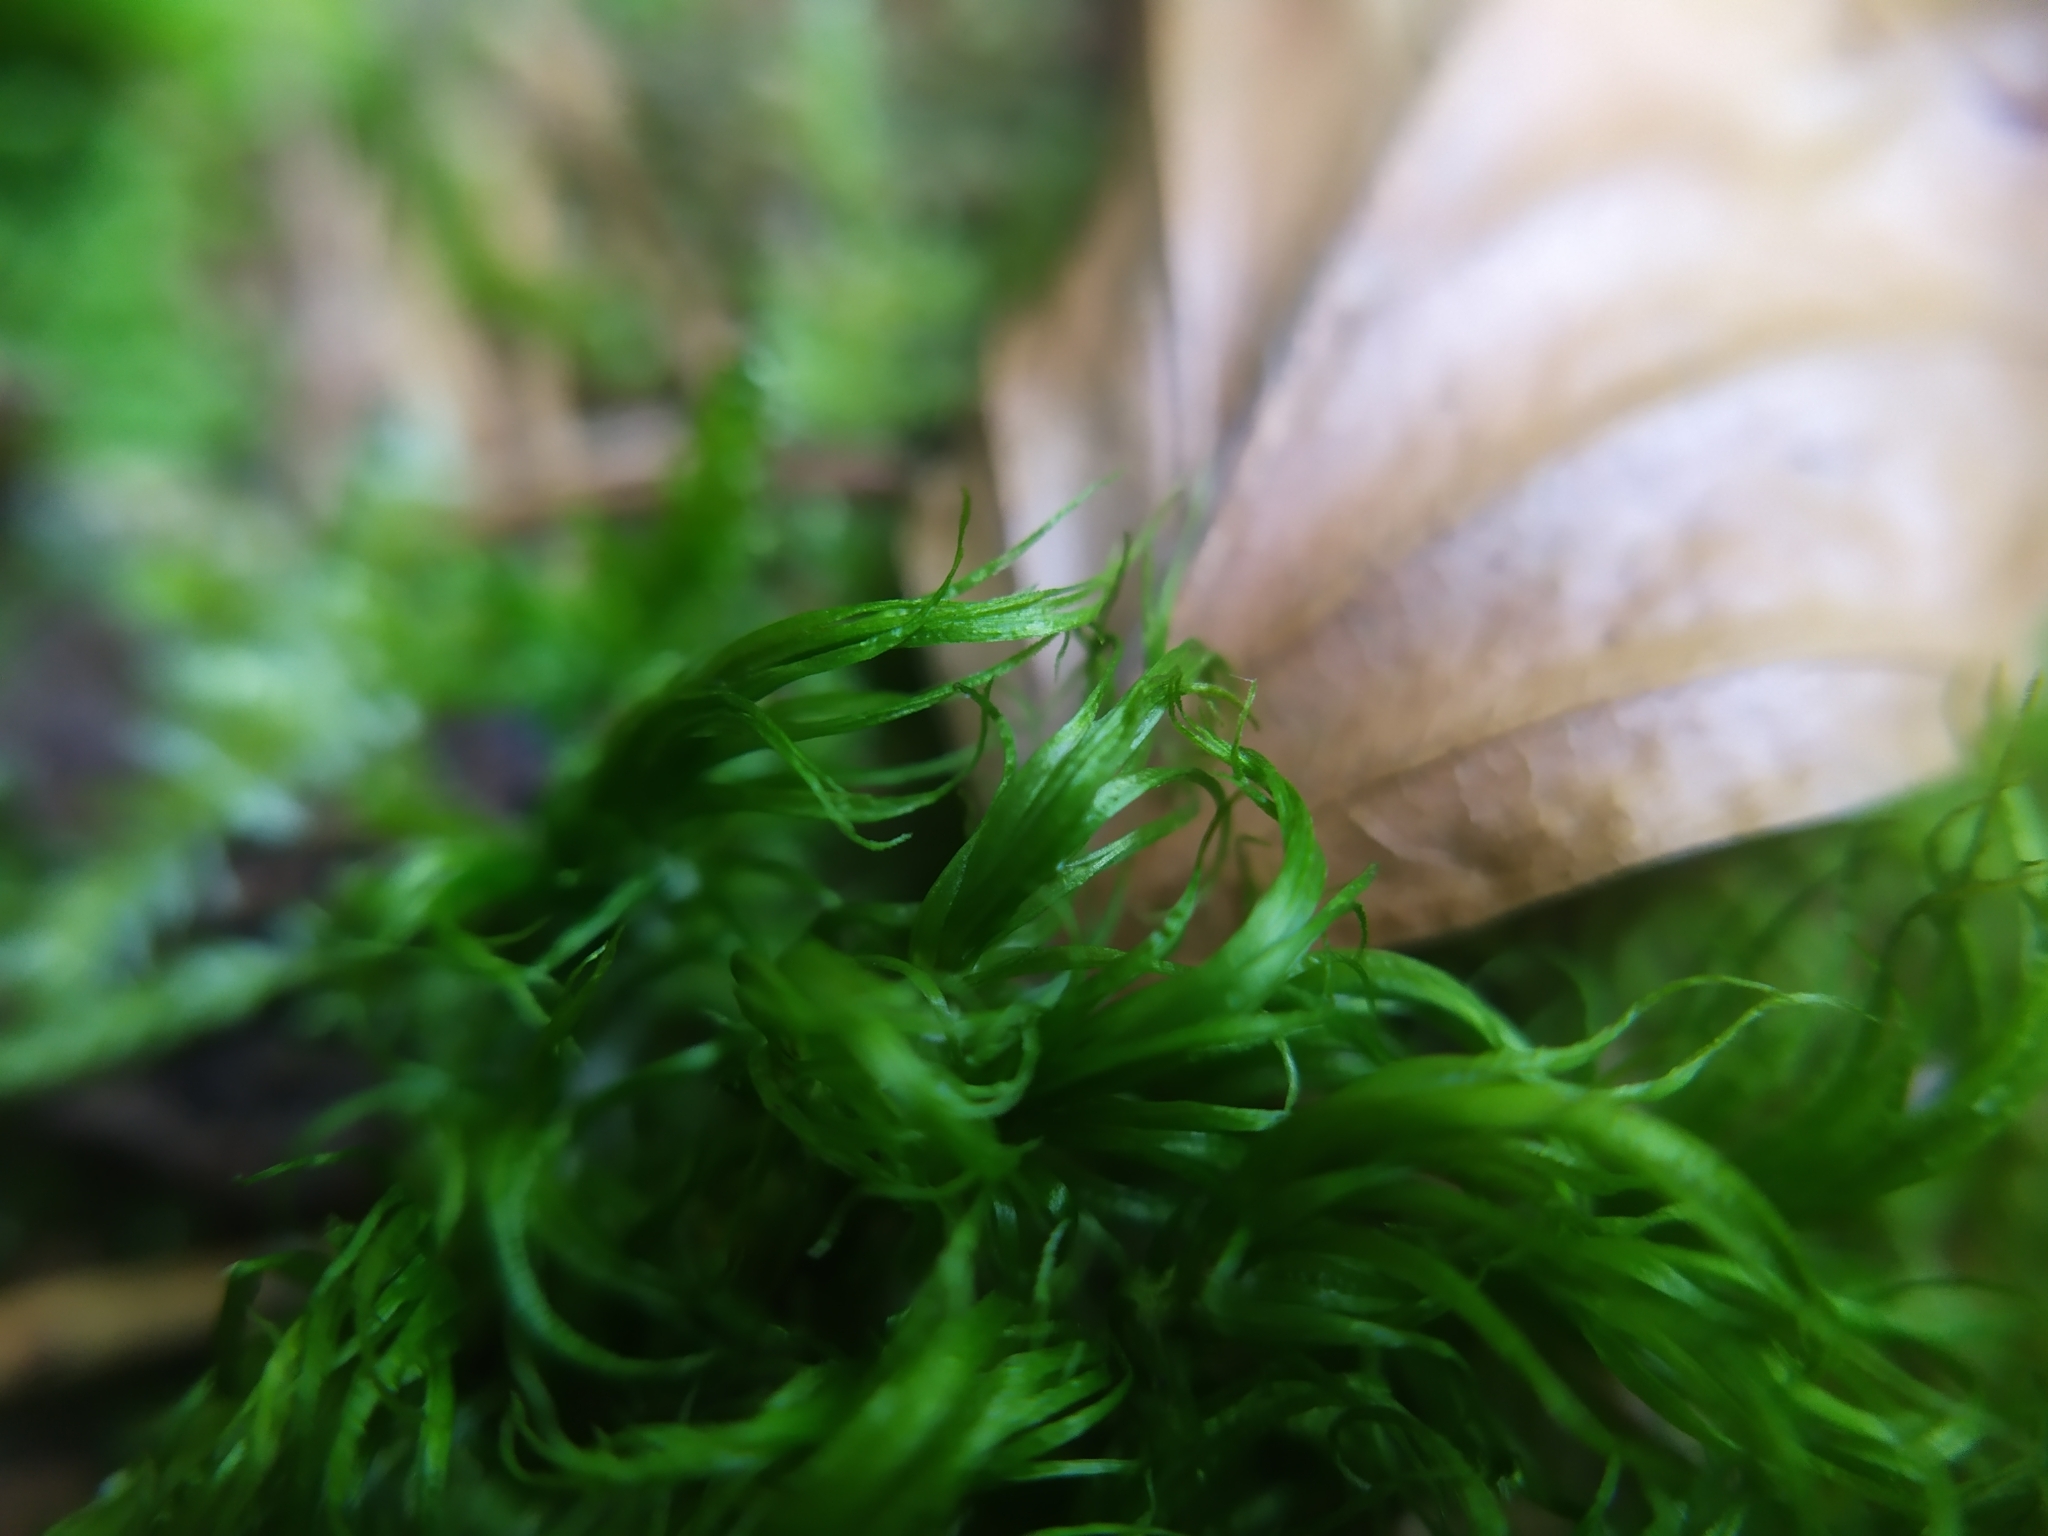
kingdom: Plantae
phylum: Bryophyta
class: Bryopsida
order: Dicranales
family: Dicranaceae
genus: Dicranum
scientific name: Dicranum scoparium
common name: Broom fork-moss
